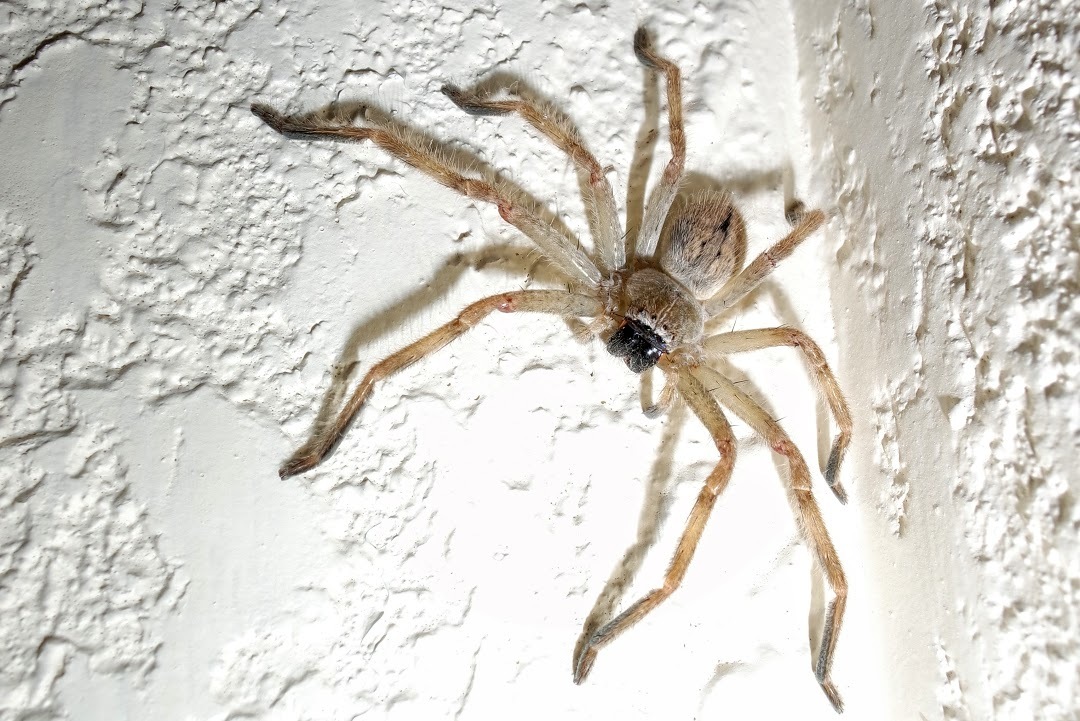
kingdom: Animalia
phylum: Arthropoda
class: Arachnida
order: Araneae
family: Sparassidae
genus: Olios
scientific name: Olios giganteus
